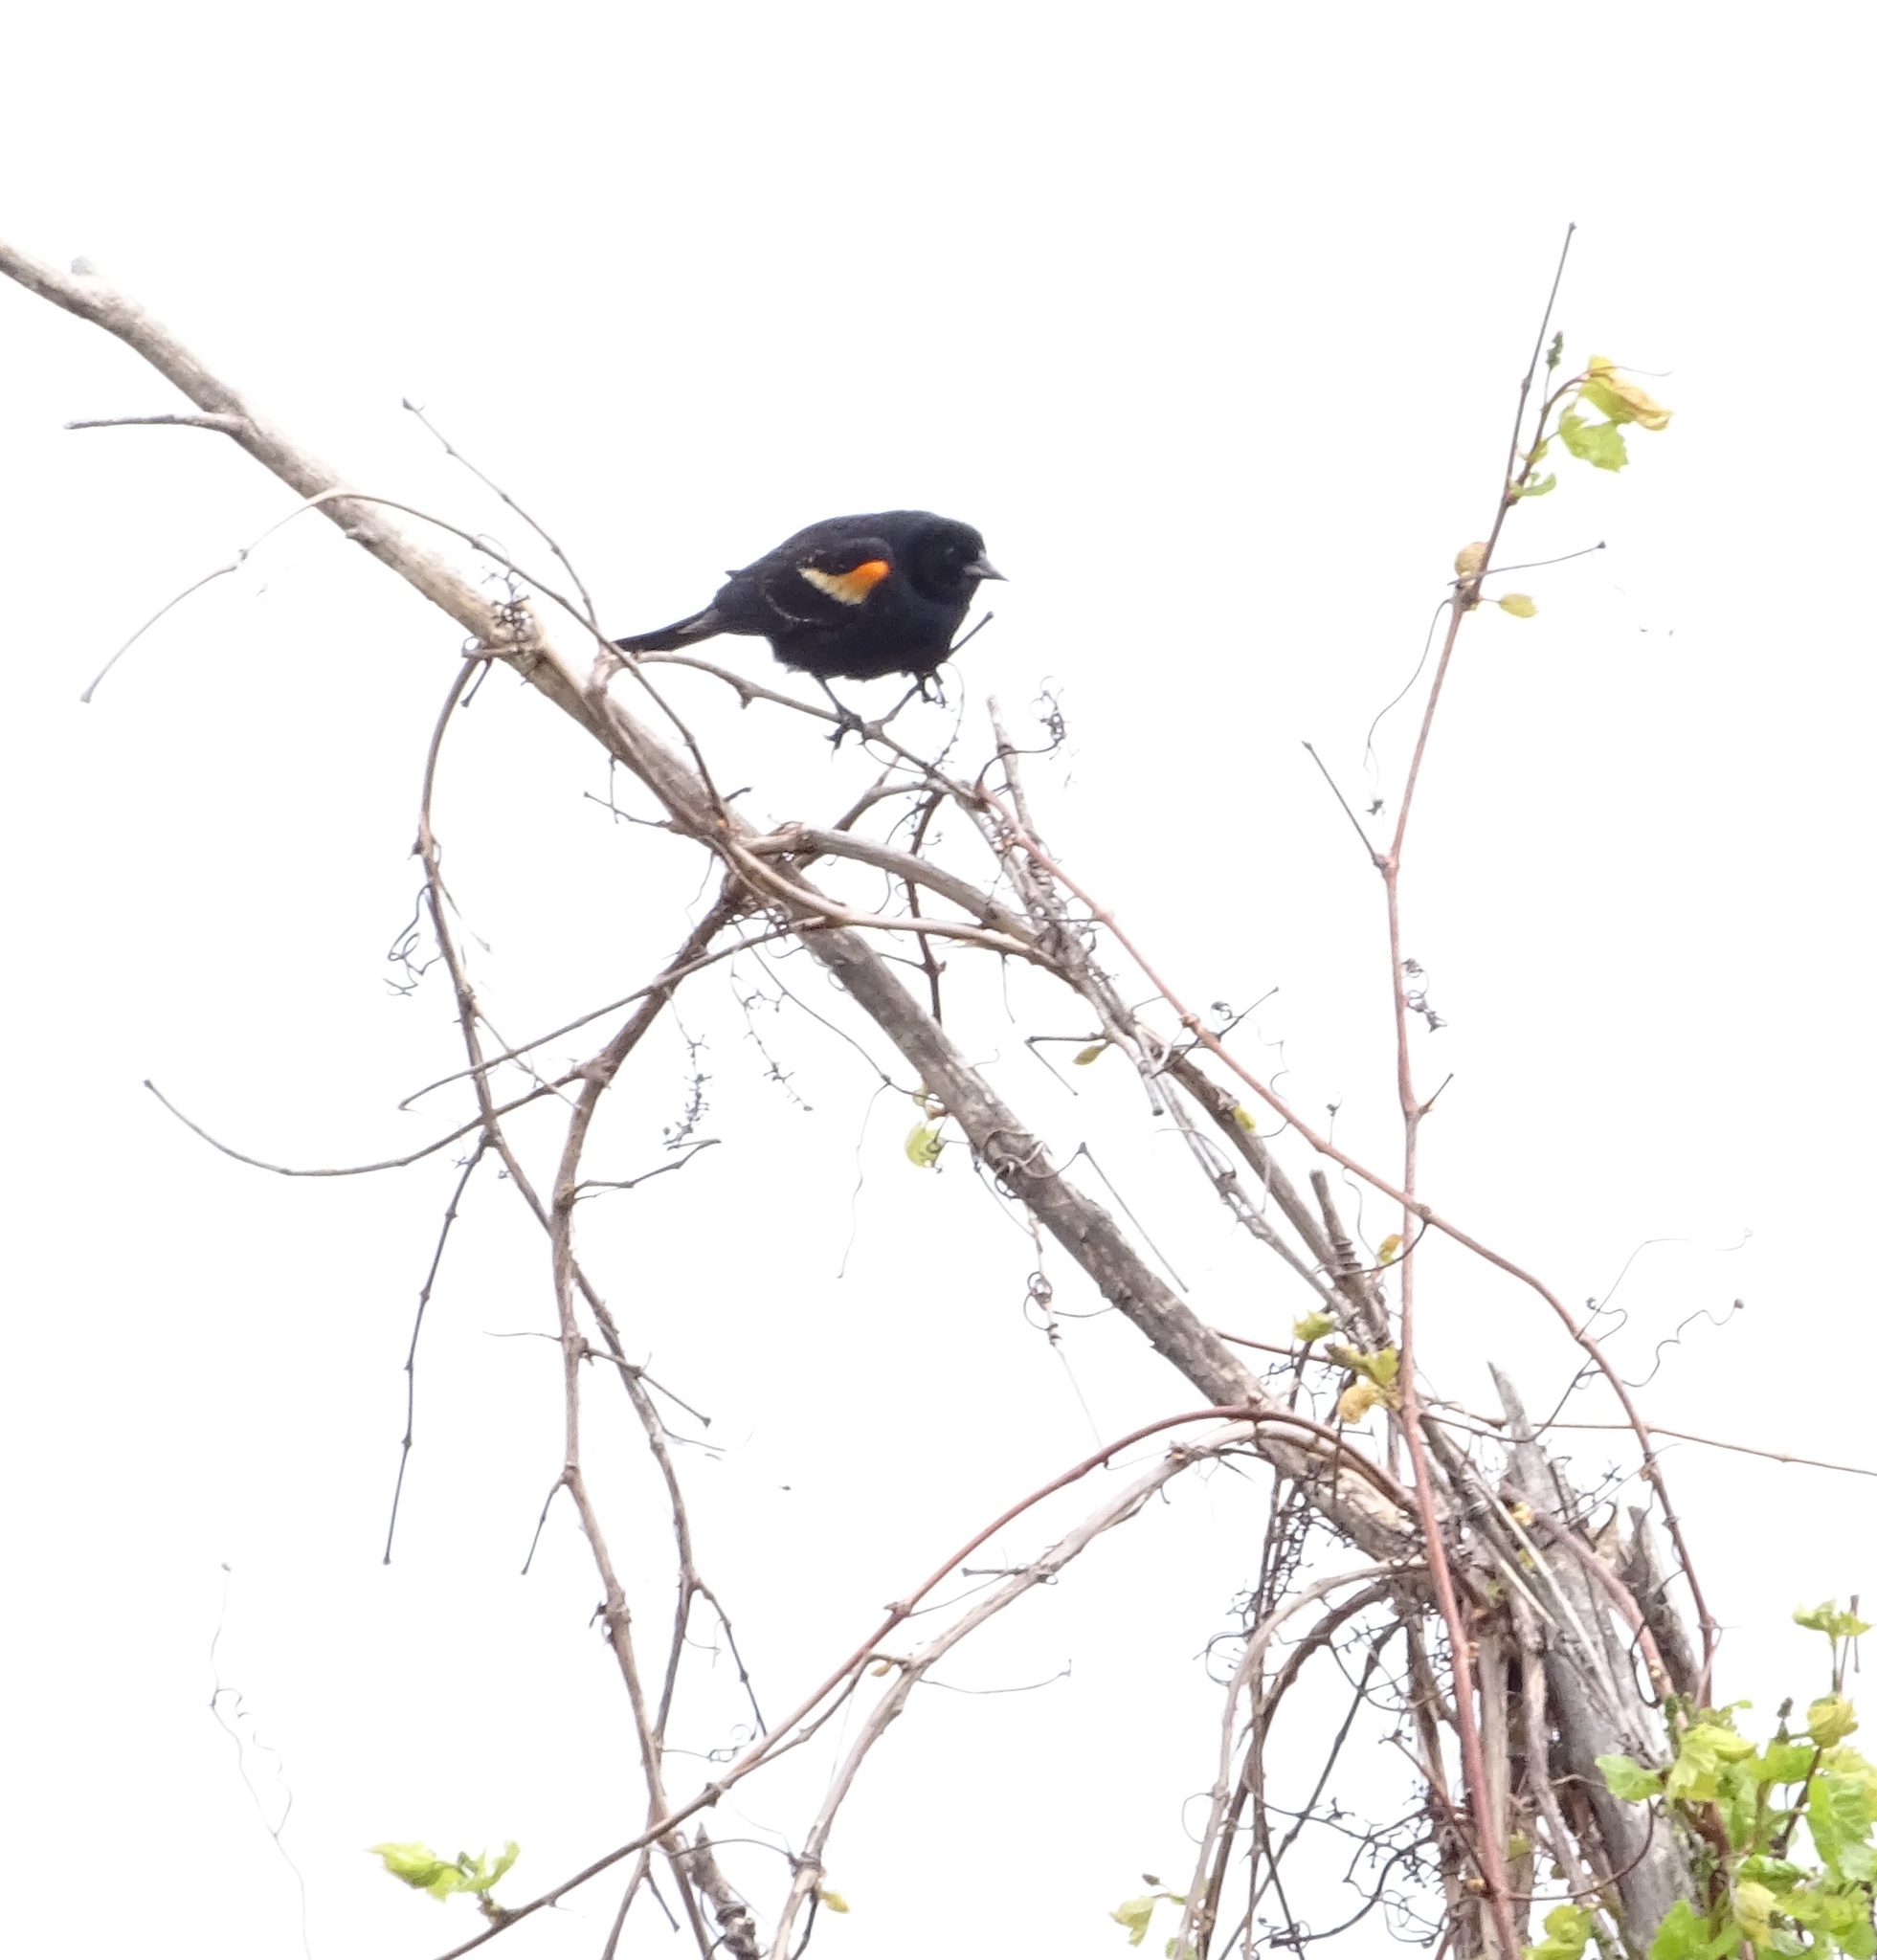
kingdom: Animalia
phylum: Chordata
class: Aves
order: Passeriformes
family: Icteridae
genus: Agelaius
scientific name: Agelaius phoeniceus
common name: Red-winged blackbird
